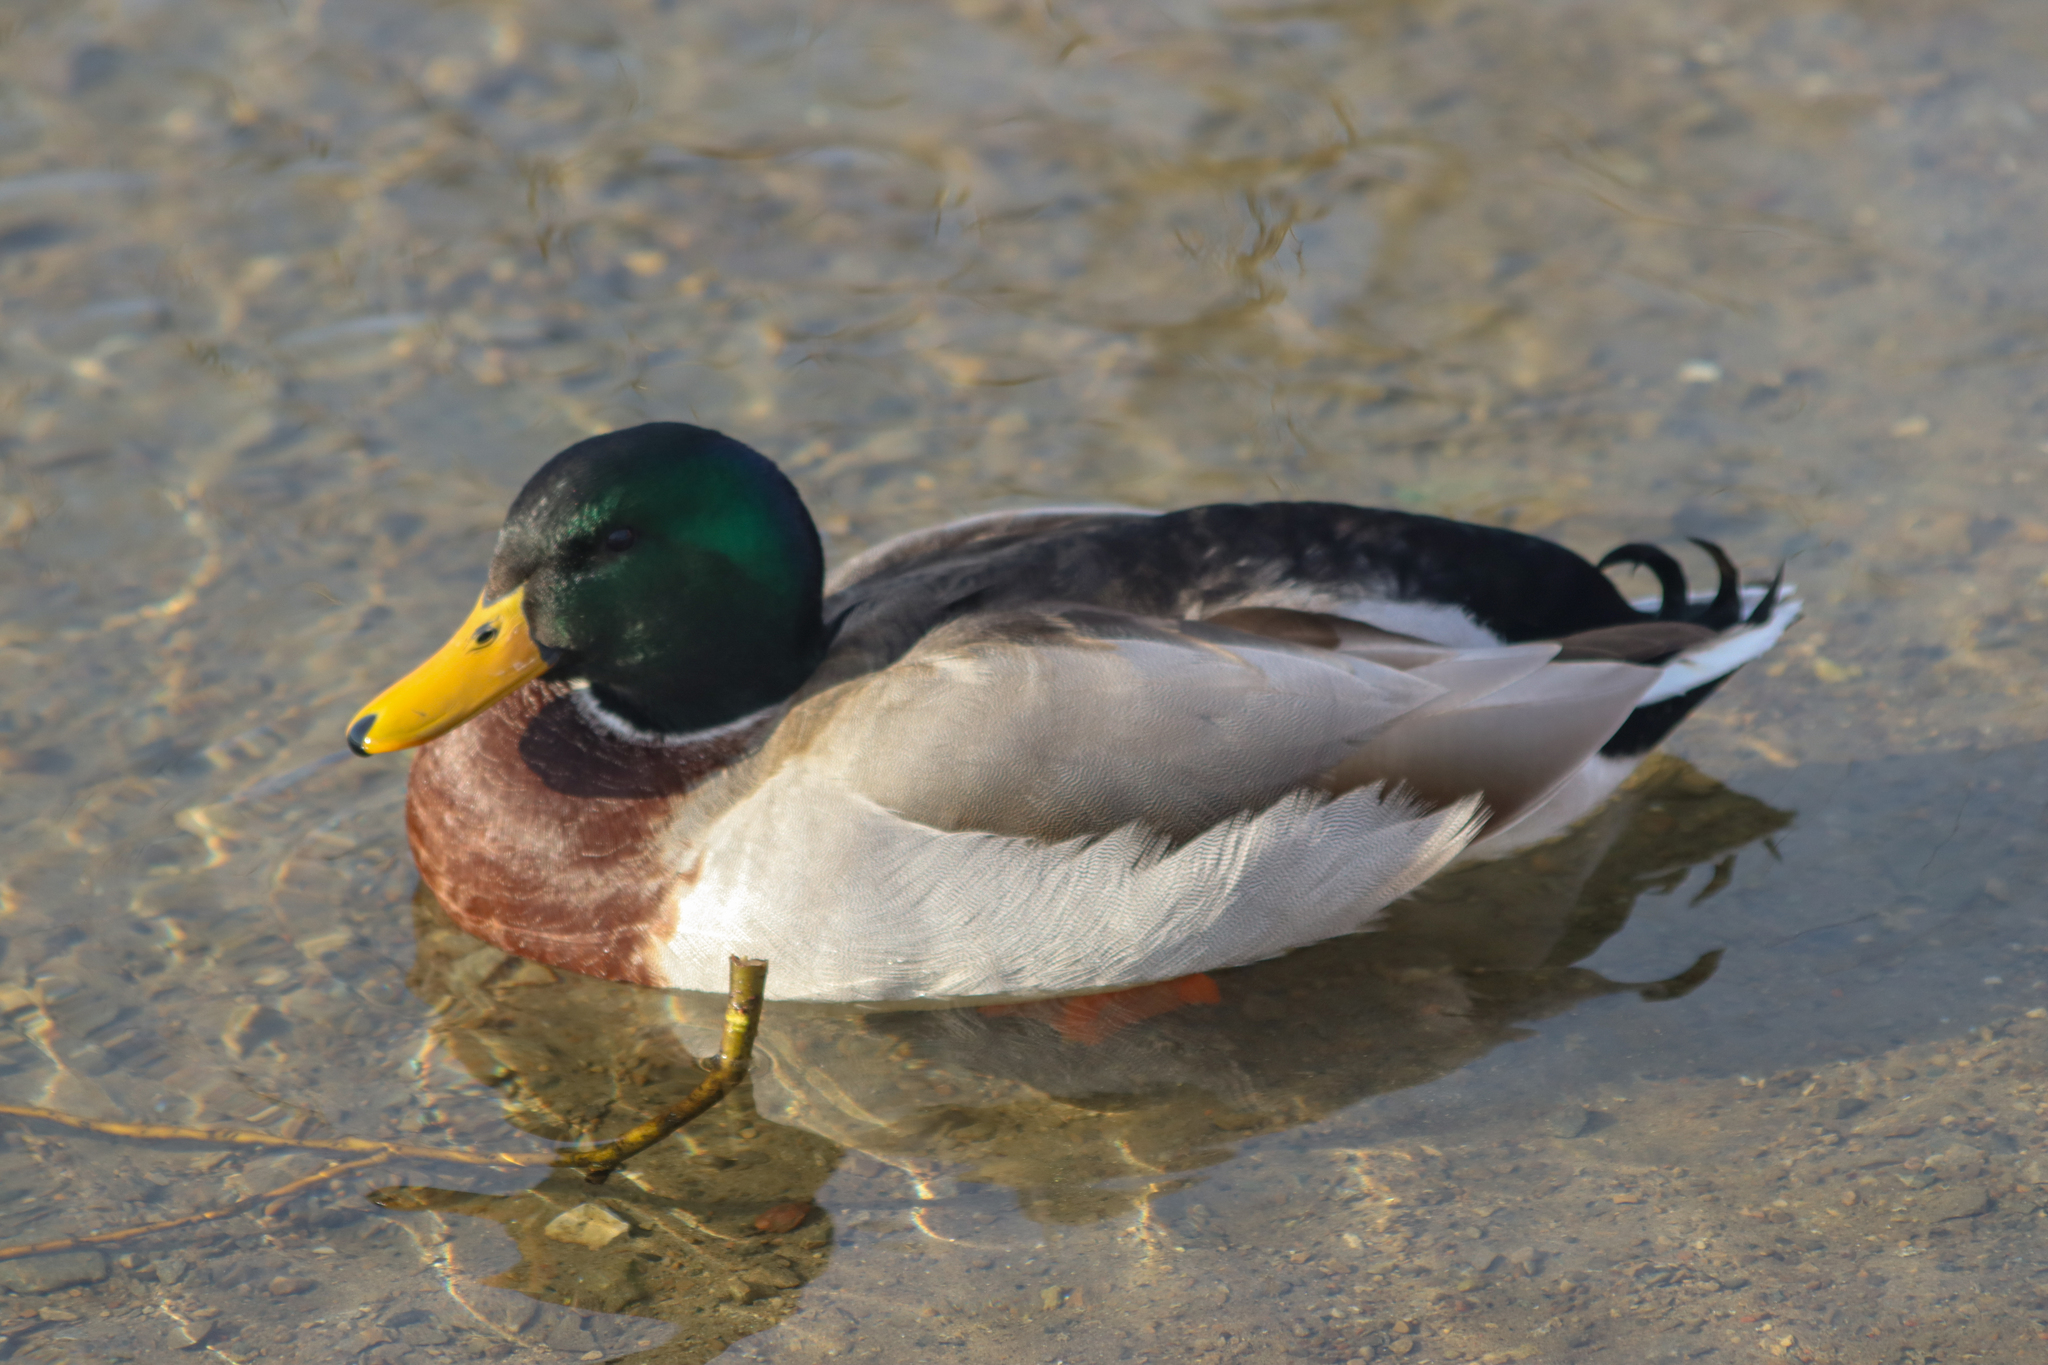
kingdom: Animalia
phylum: Chordata
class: Aves
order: Anseriformes
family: Anatidae
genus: Anas
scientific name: Anas platyrhynchos
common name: Mallard
